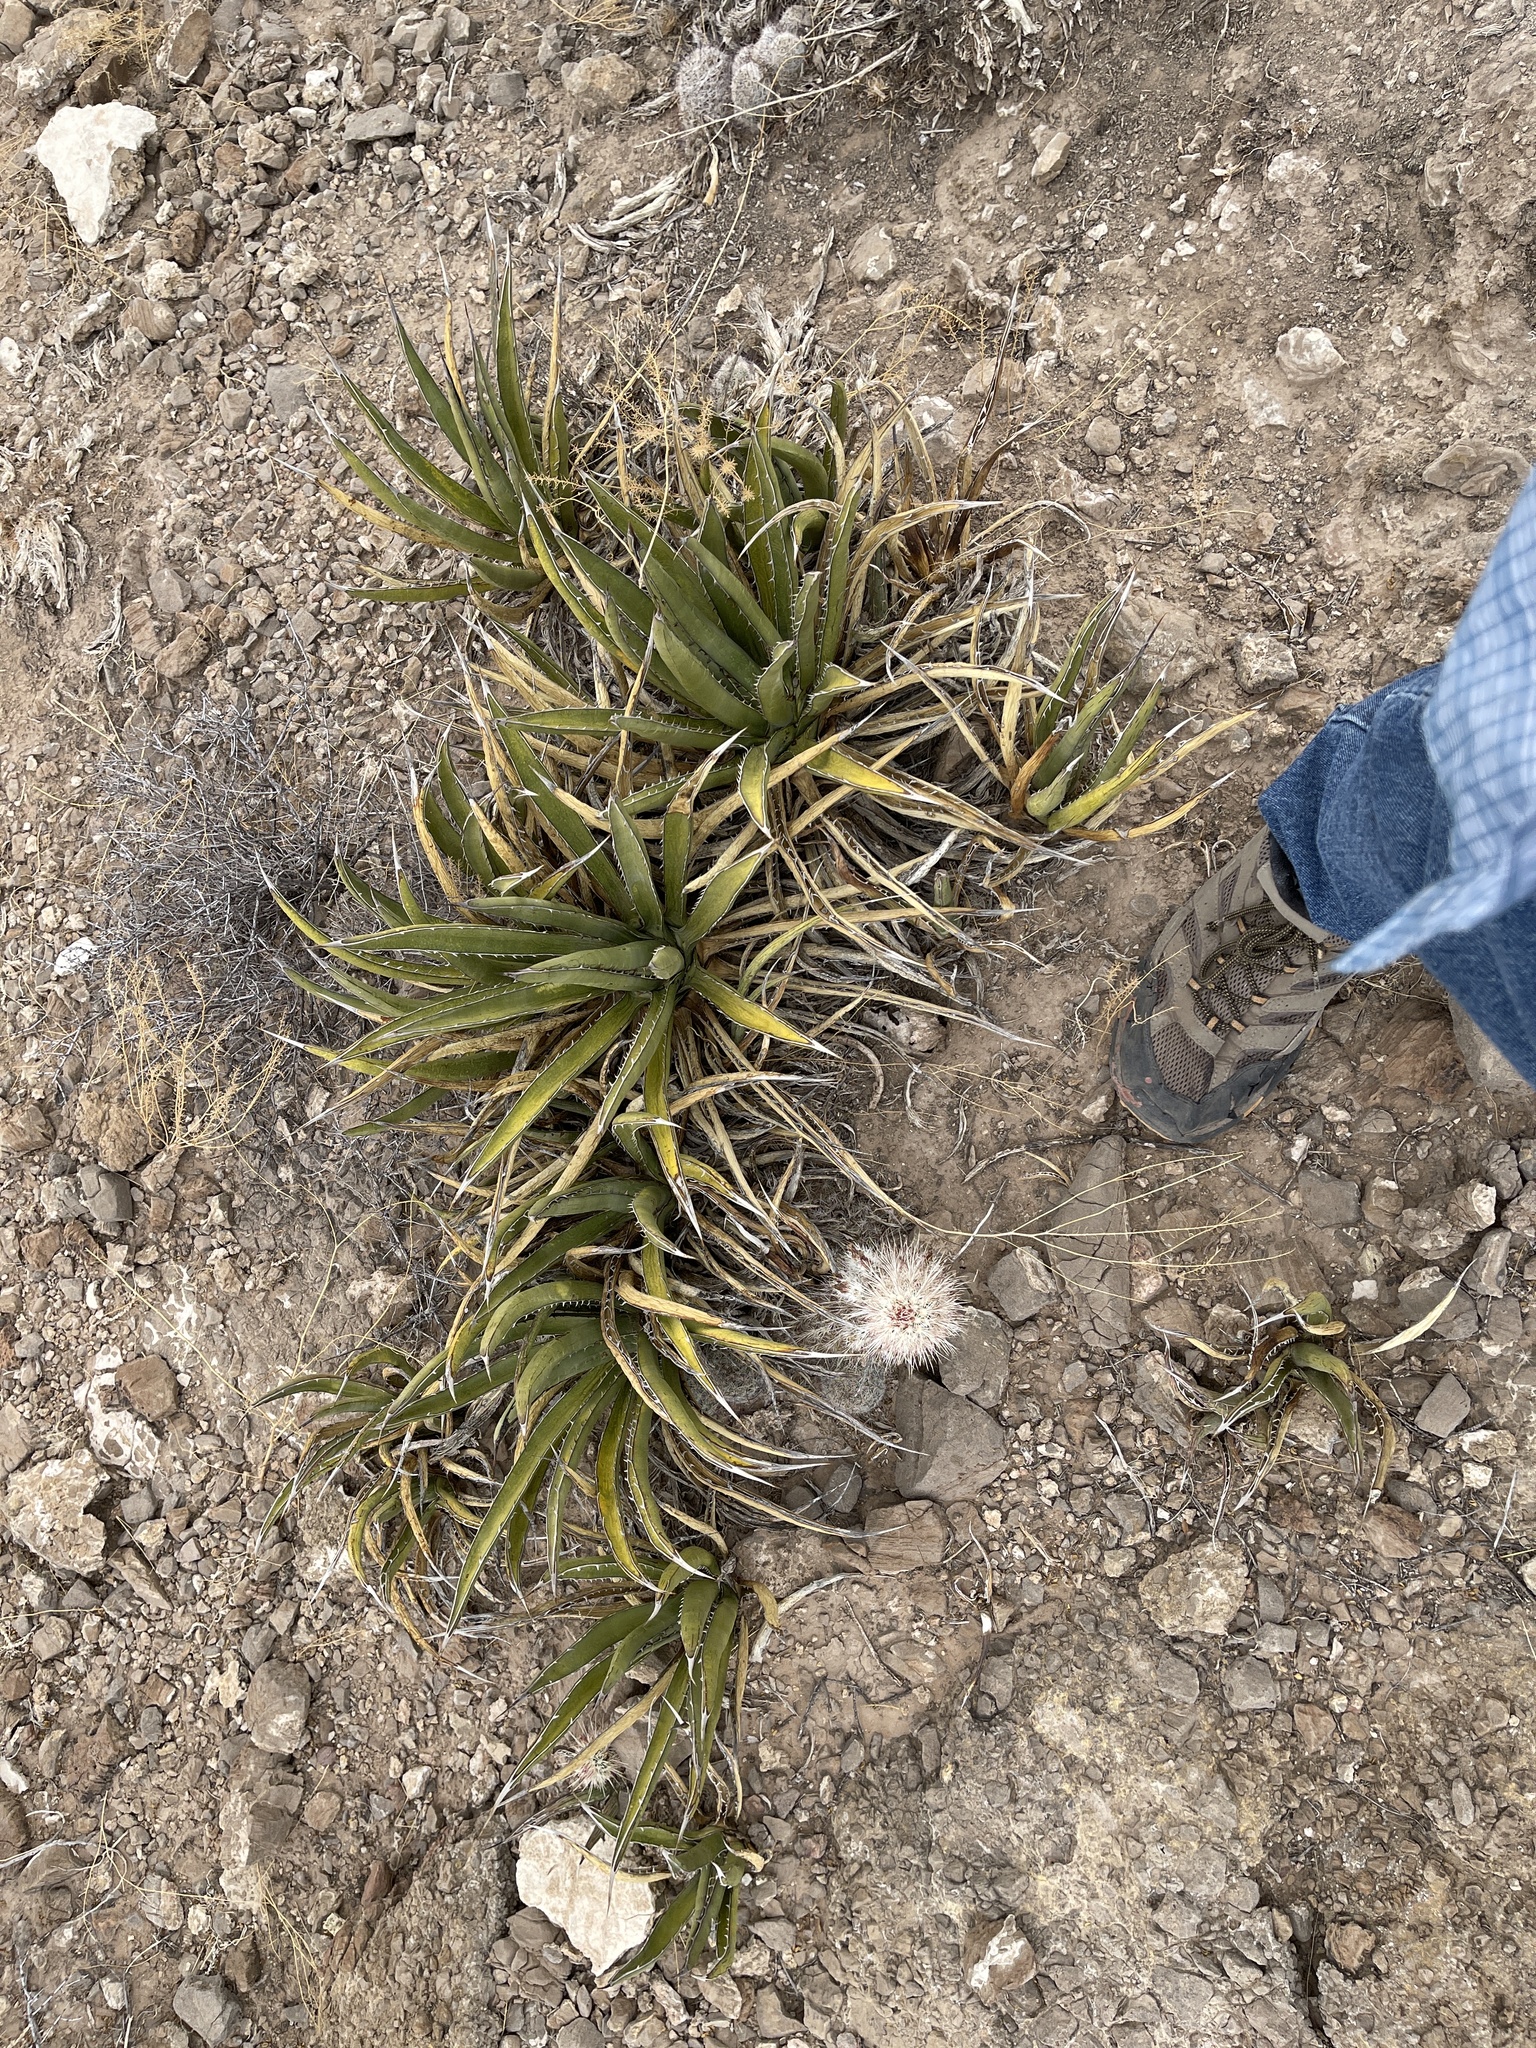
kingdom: Plantae
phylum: Tracheophyta
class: Liliopsida
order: Asparagales
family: Asparagaceae
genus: Agave
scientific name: Agave lechuguilla
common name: Lecheguilla agave
